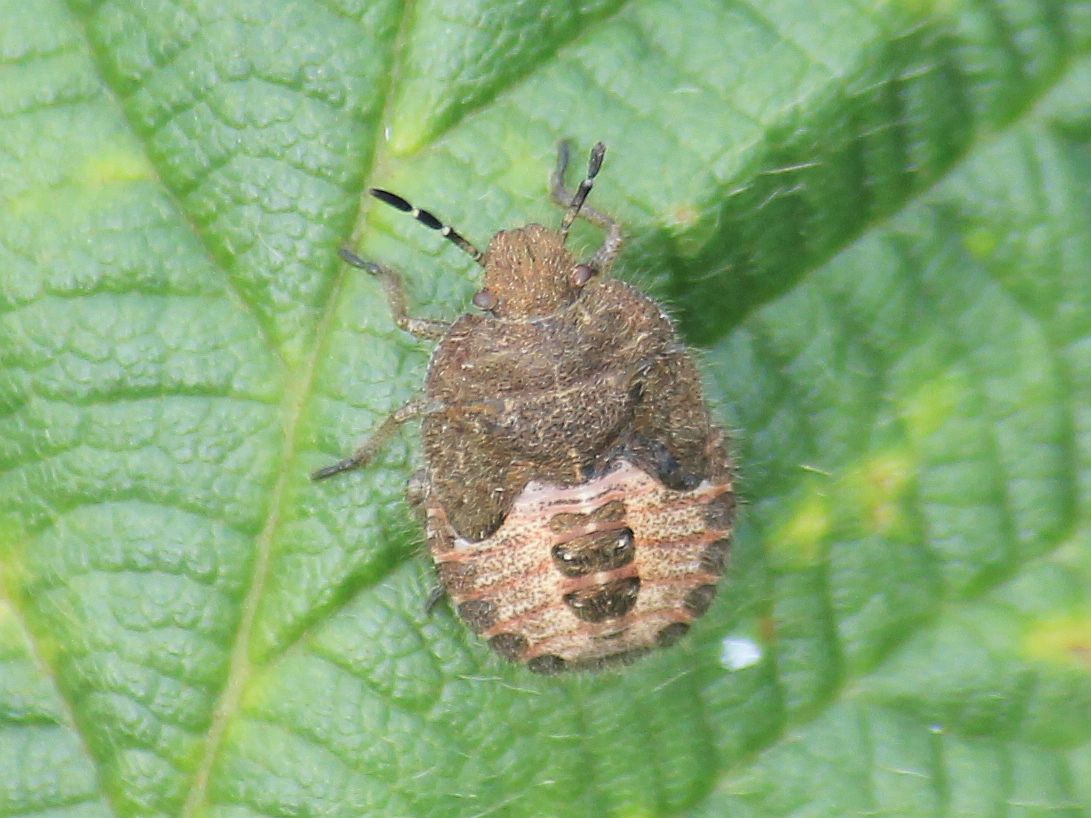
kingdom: Animalia
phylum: Arthropoda
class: Insecta
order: Hemiptera
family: Pentatomidae
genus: Dolycoris
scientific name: Dolycoris baccarum
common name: Sloe bug
